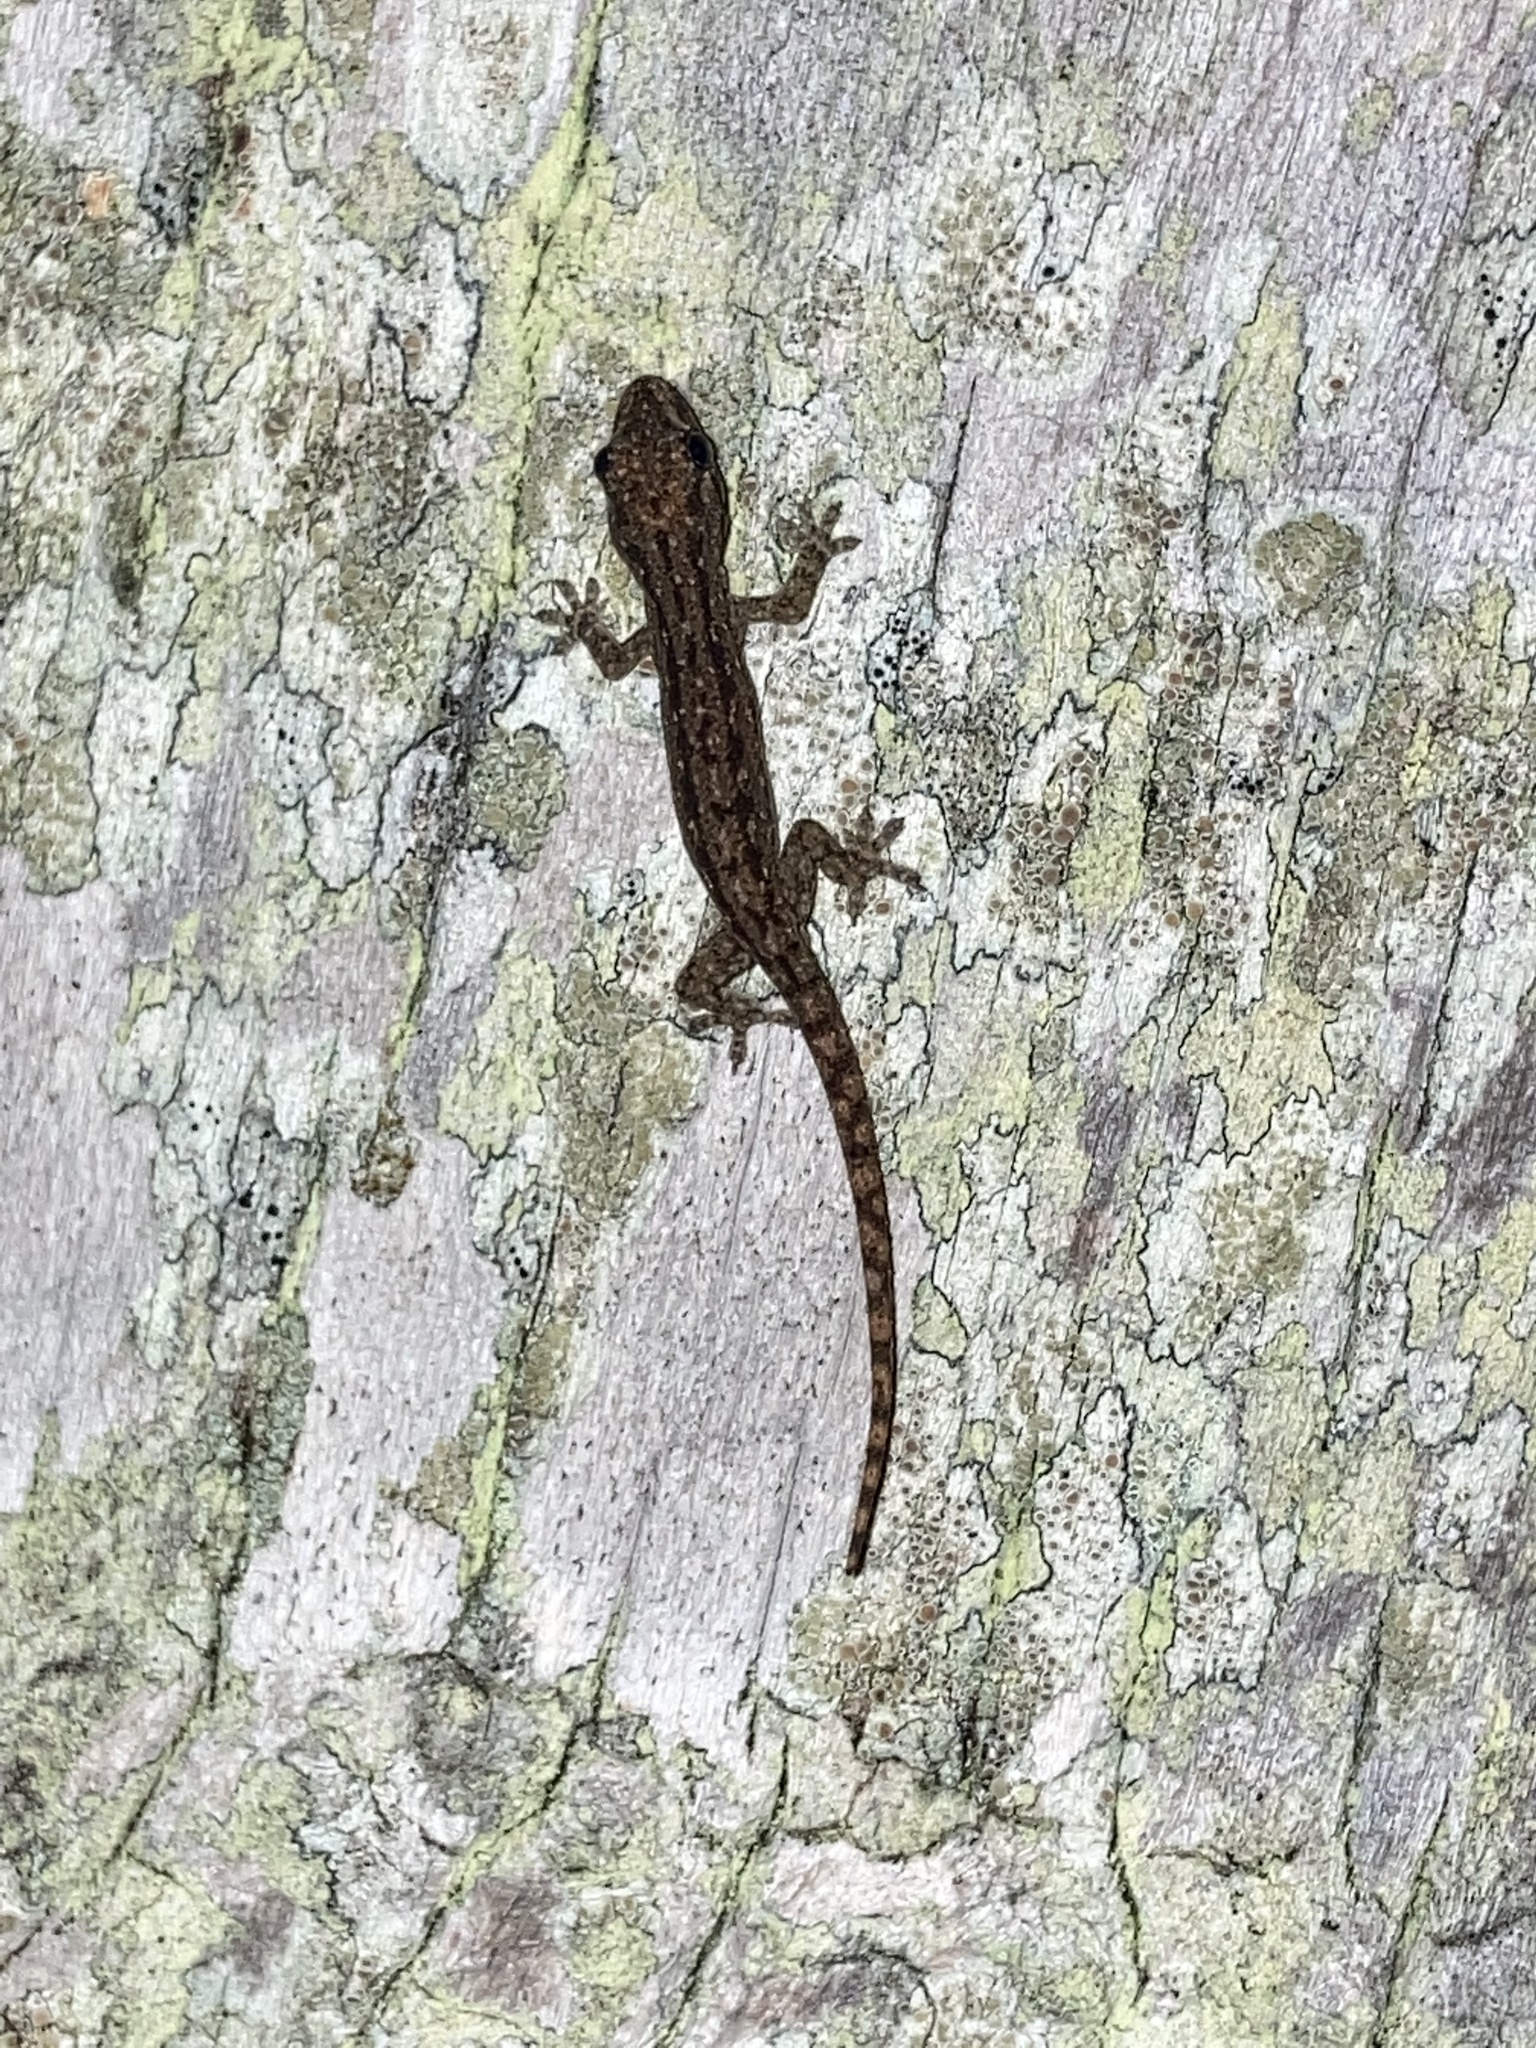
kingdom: Animalia
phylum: Chordata
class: Squamata
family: Gekkonidae
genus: Hemidactylus
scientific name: Hemidactylus frenatus
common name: Common house gecko
